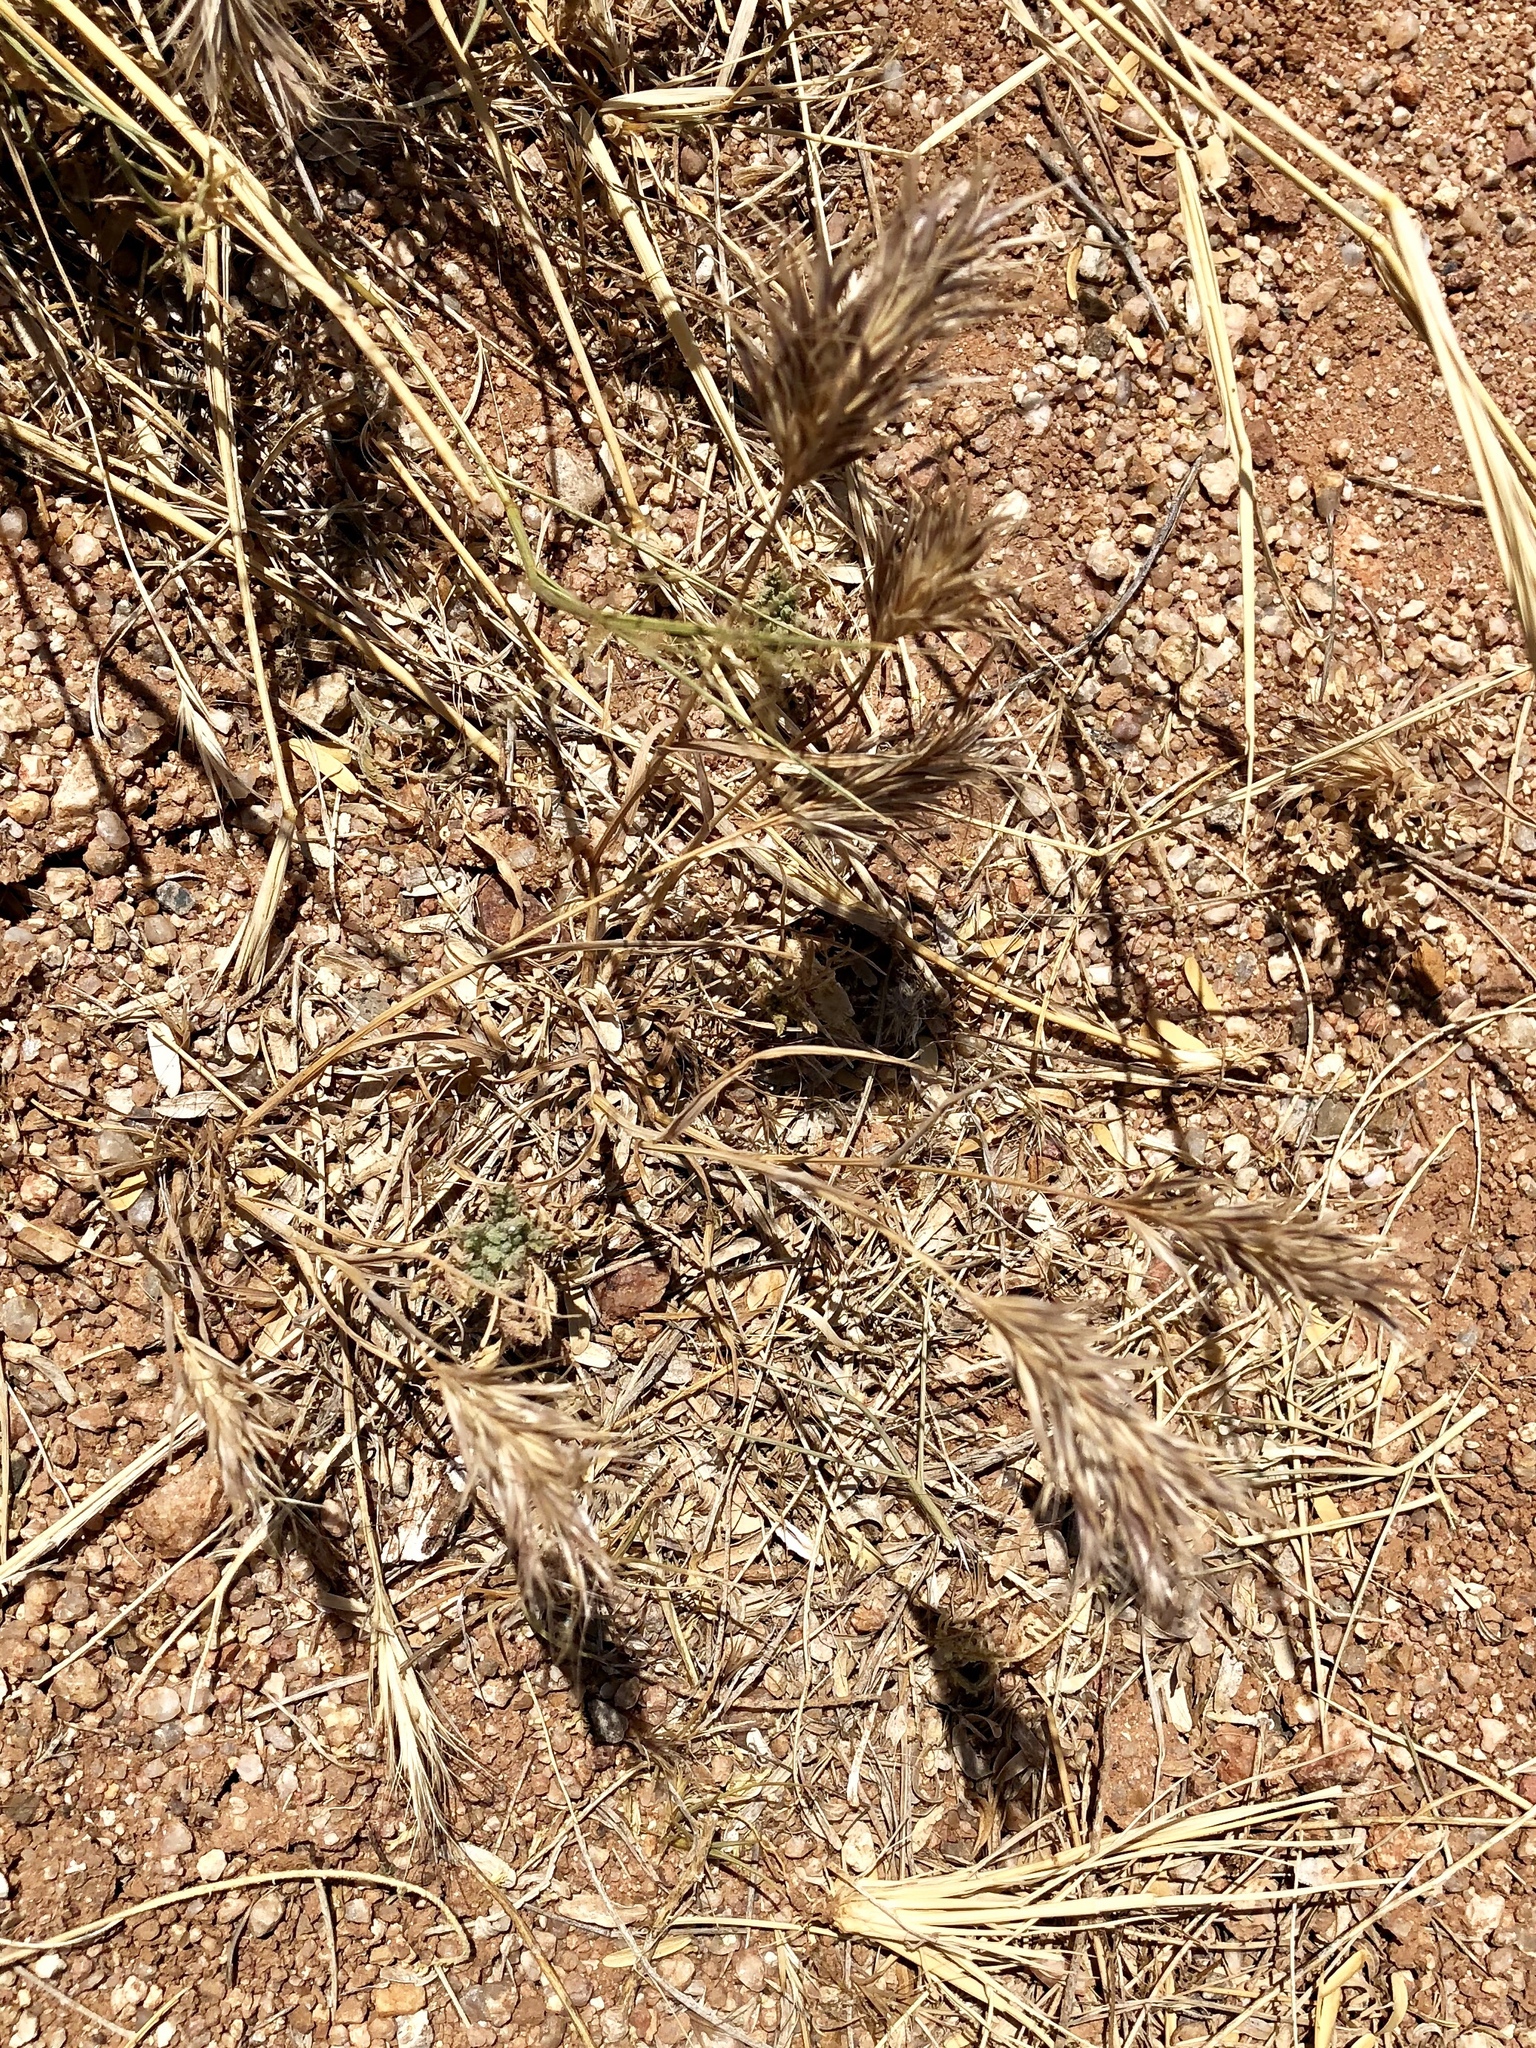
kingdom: Plantae
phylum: Tracheophyta
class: Liliopsida
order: Poales
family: Poaceae
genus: Bromus
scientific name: Bromus rubens
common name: Red brome
